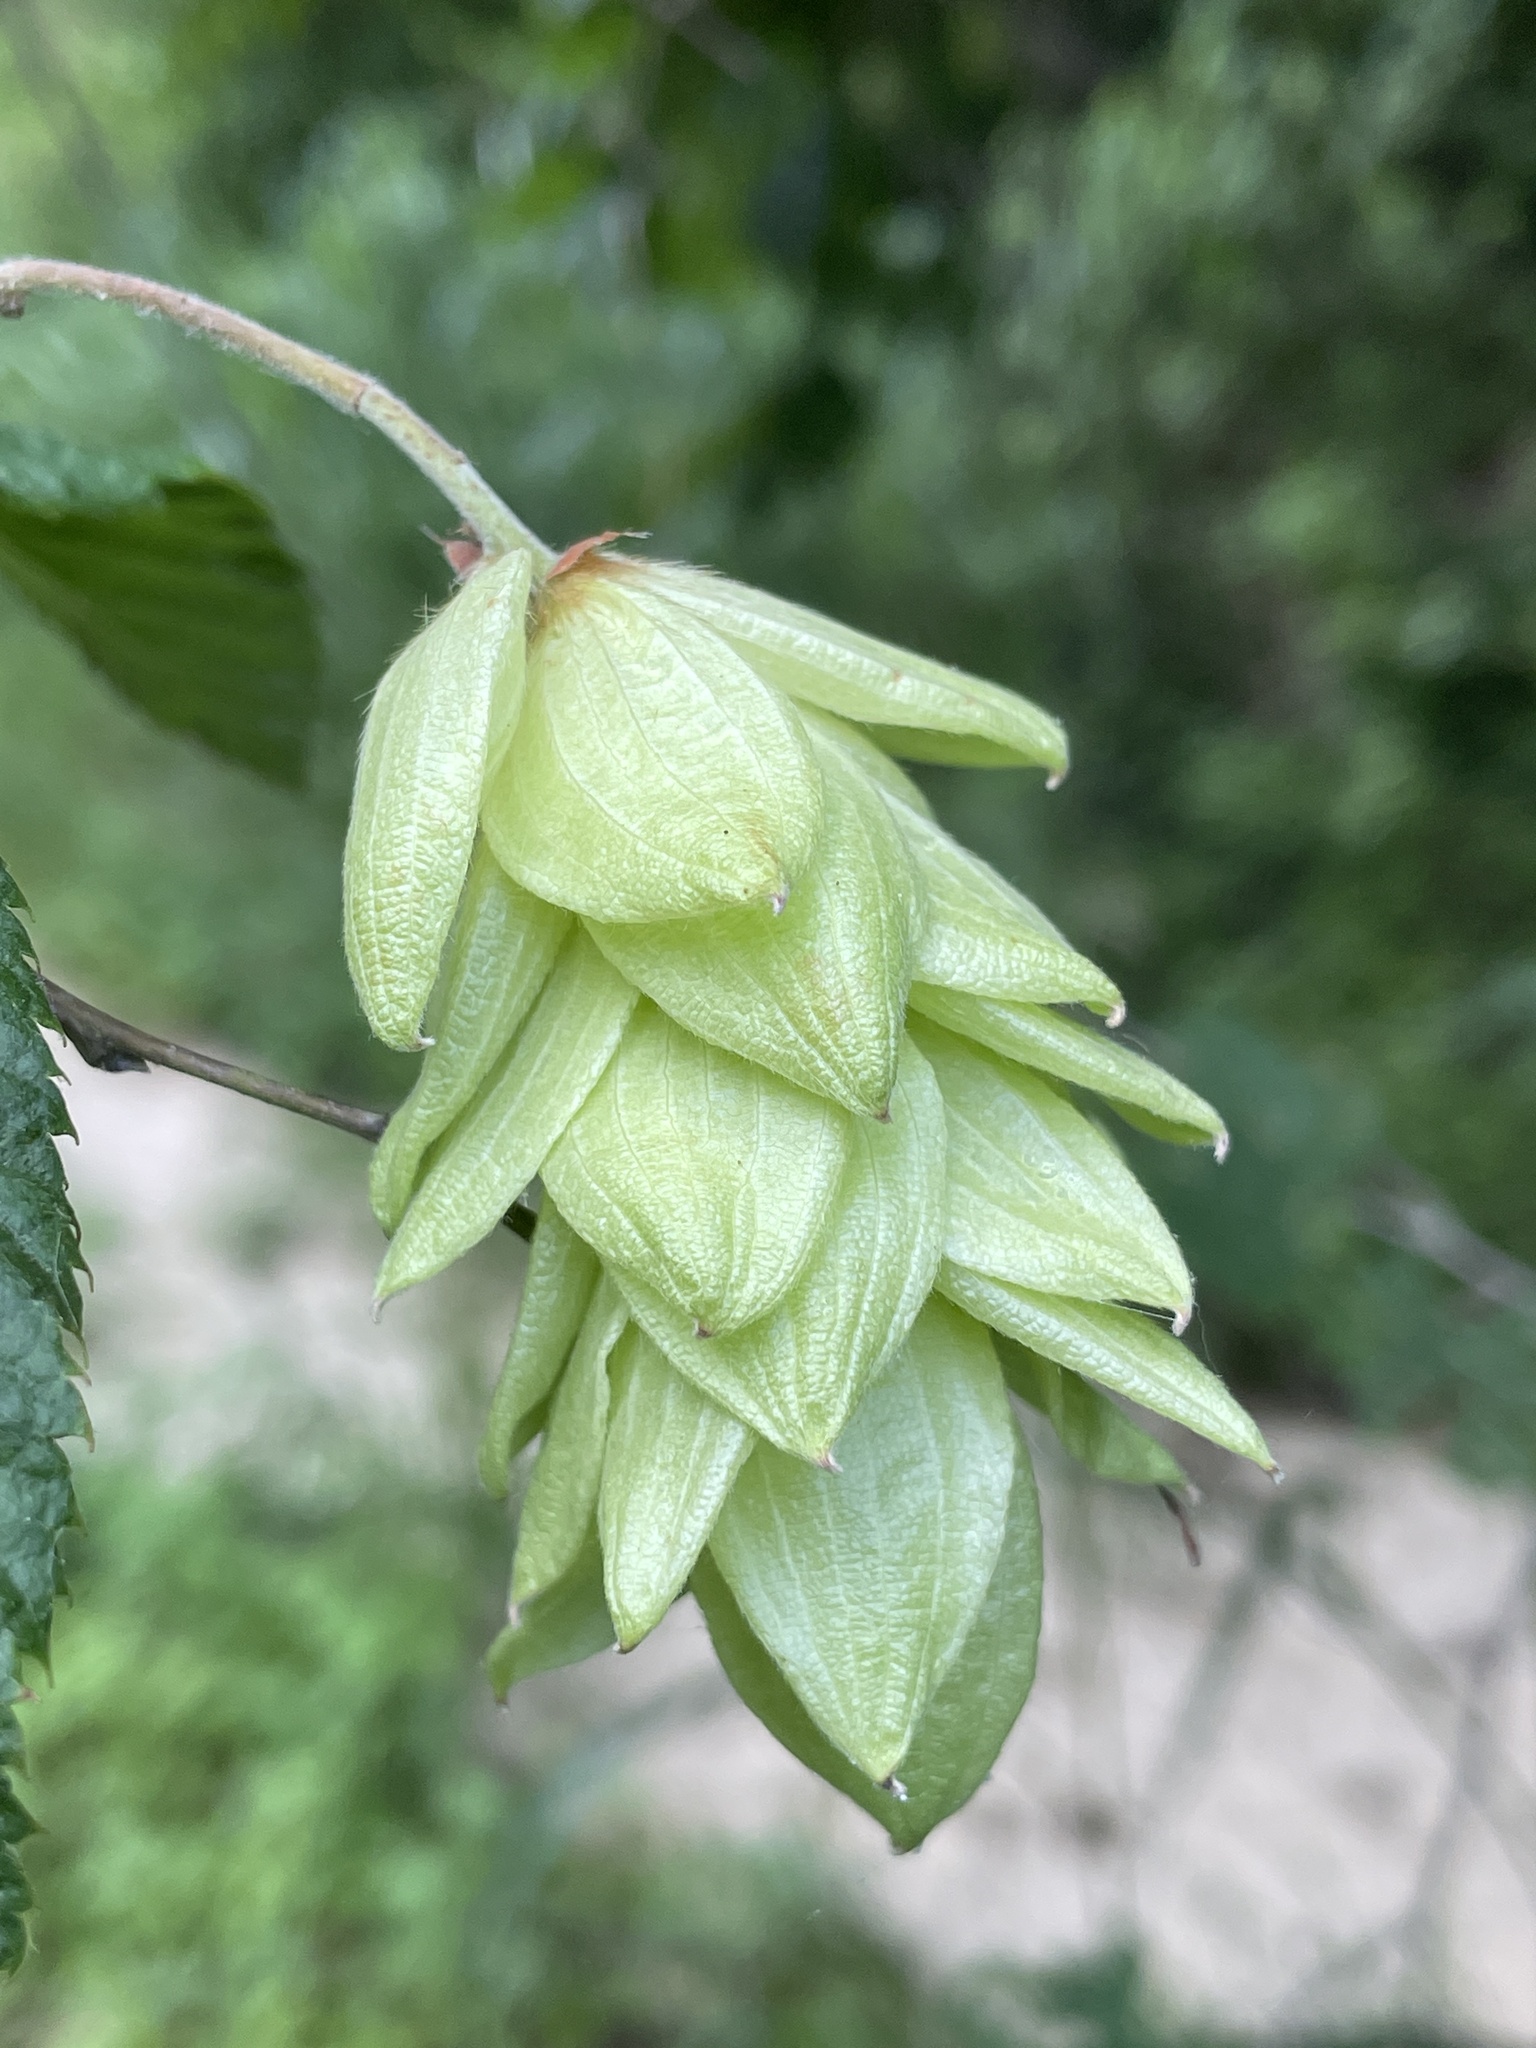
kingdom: Plantae
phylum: Tracheophyta
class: Magnoliopsida
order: Fagales
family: Betulaceae
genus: Ostrya
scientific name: Ostrya virginiana
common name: Ironwood
